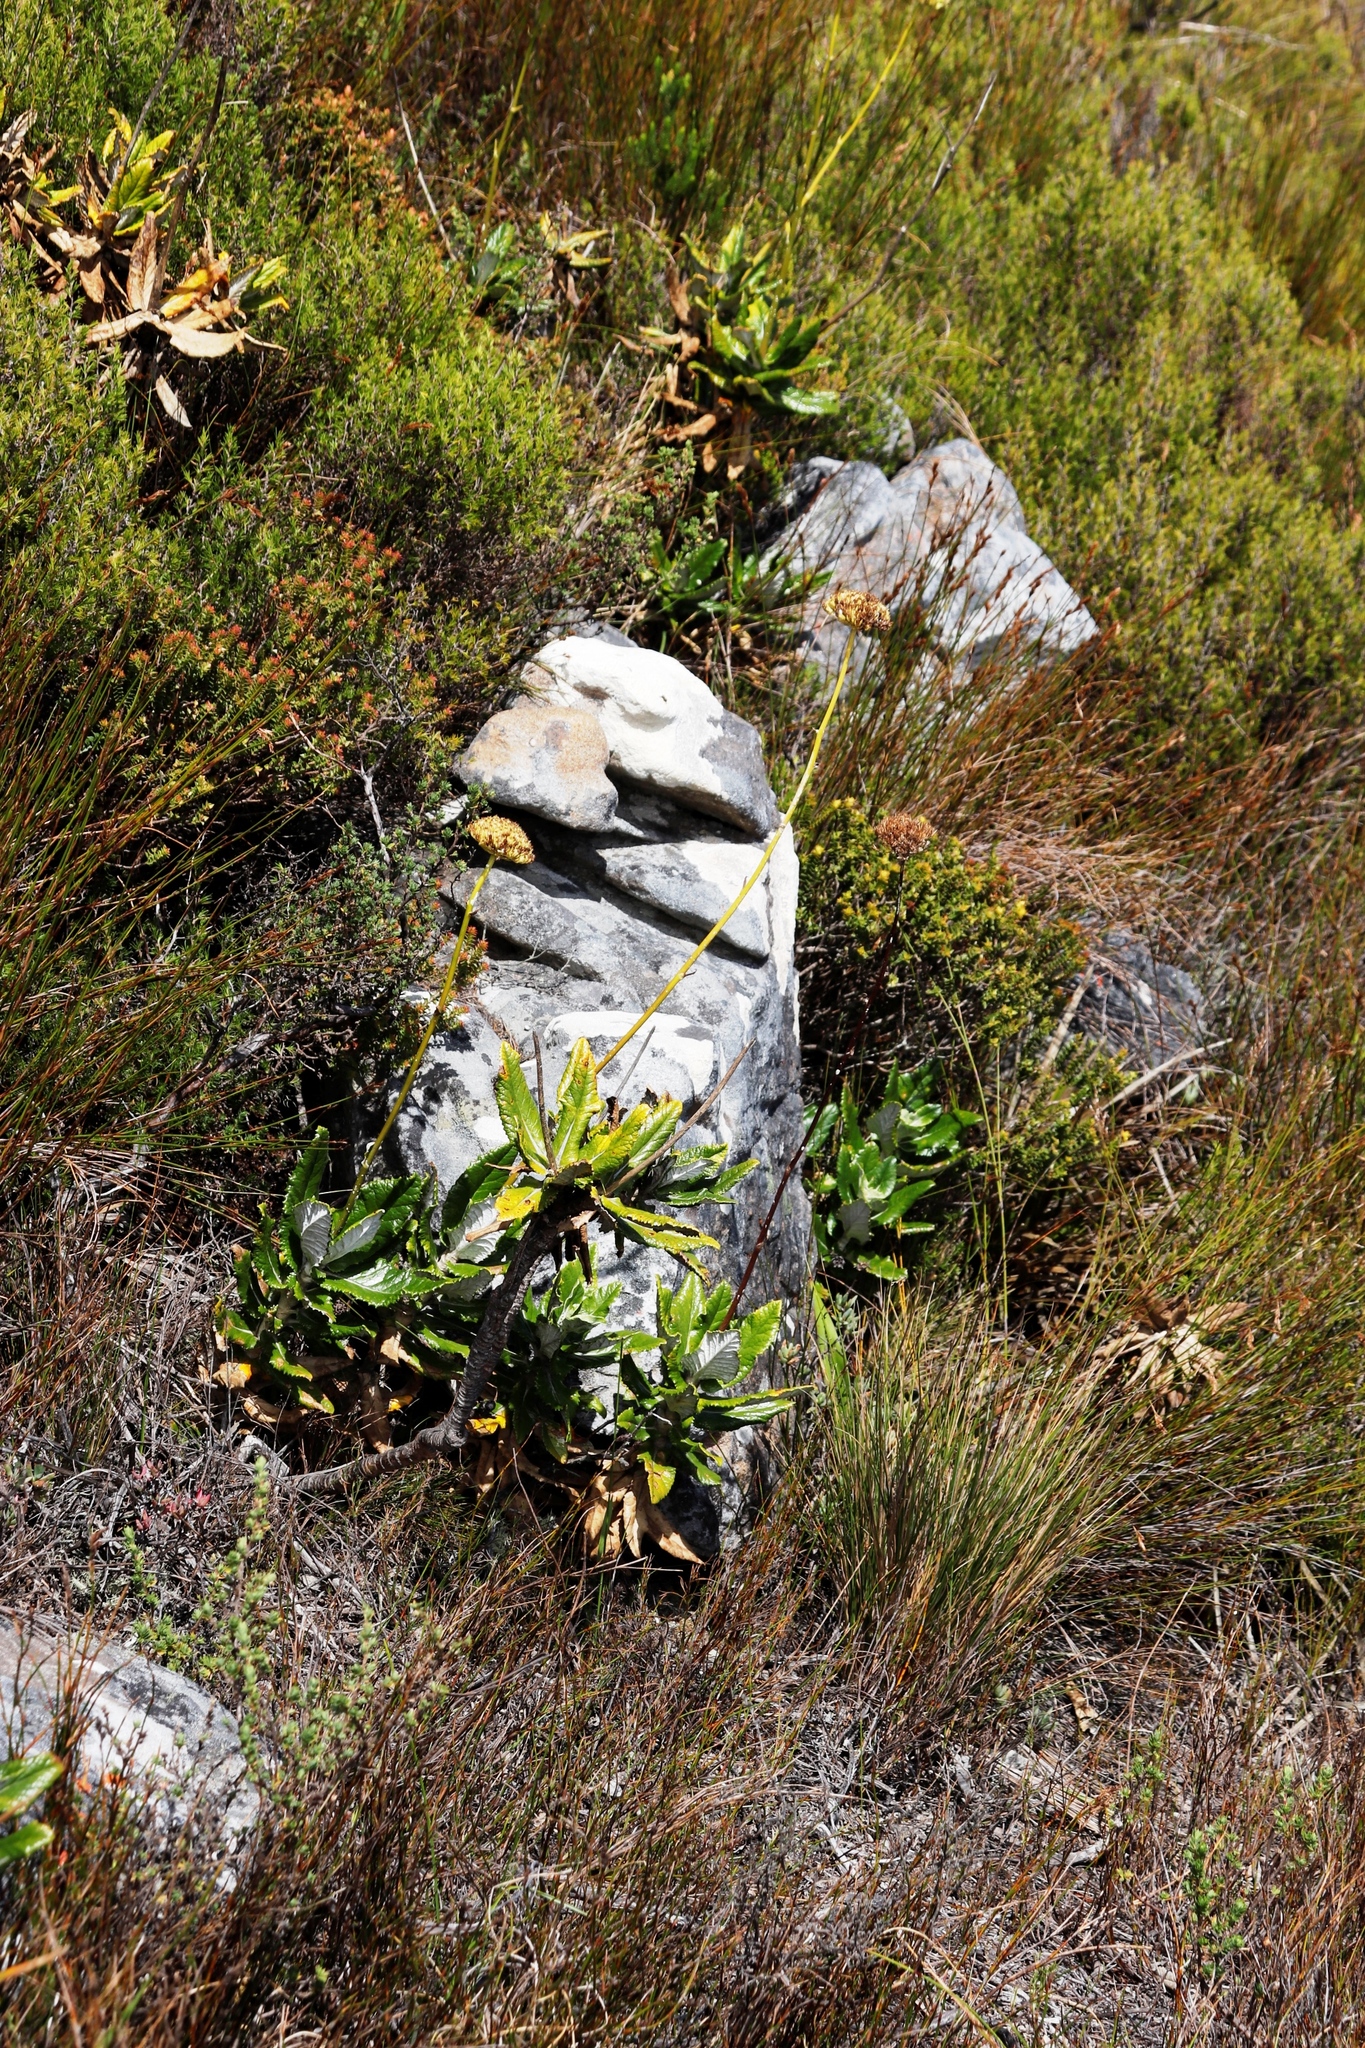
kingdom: Plantae
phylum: Tracheophyta
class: Magnoliopsida
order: Apiales
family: Apiaceae
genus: Hermas
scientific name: Hermas villosa
